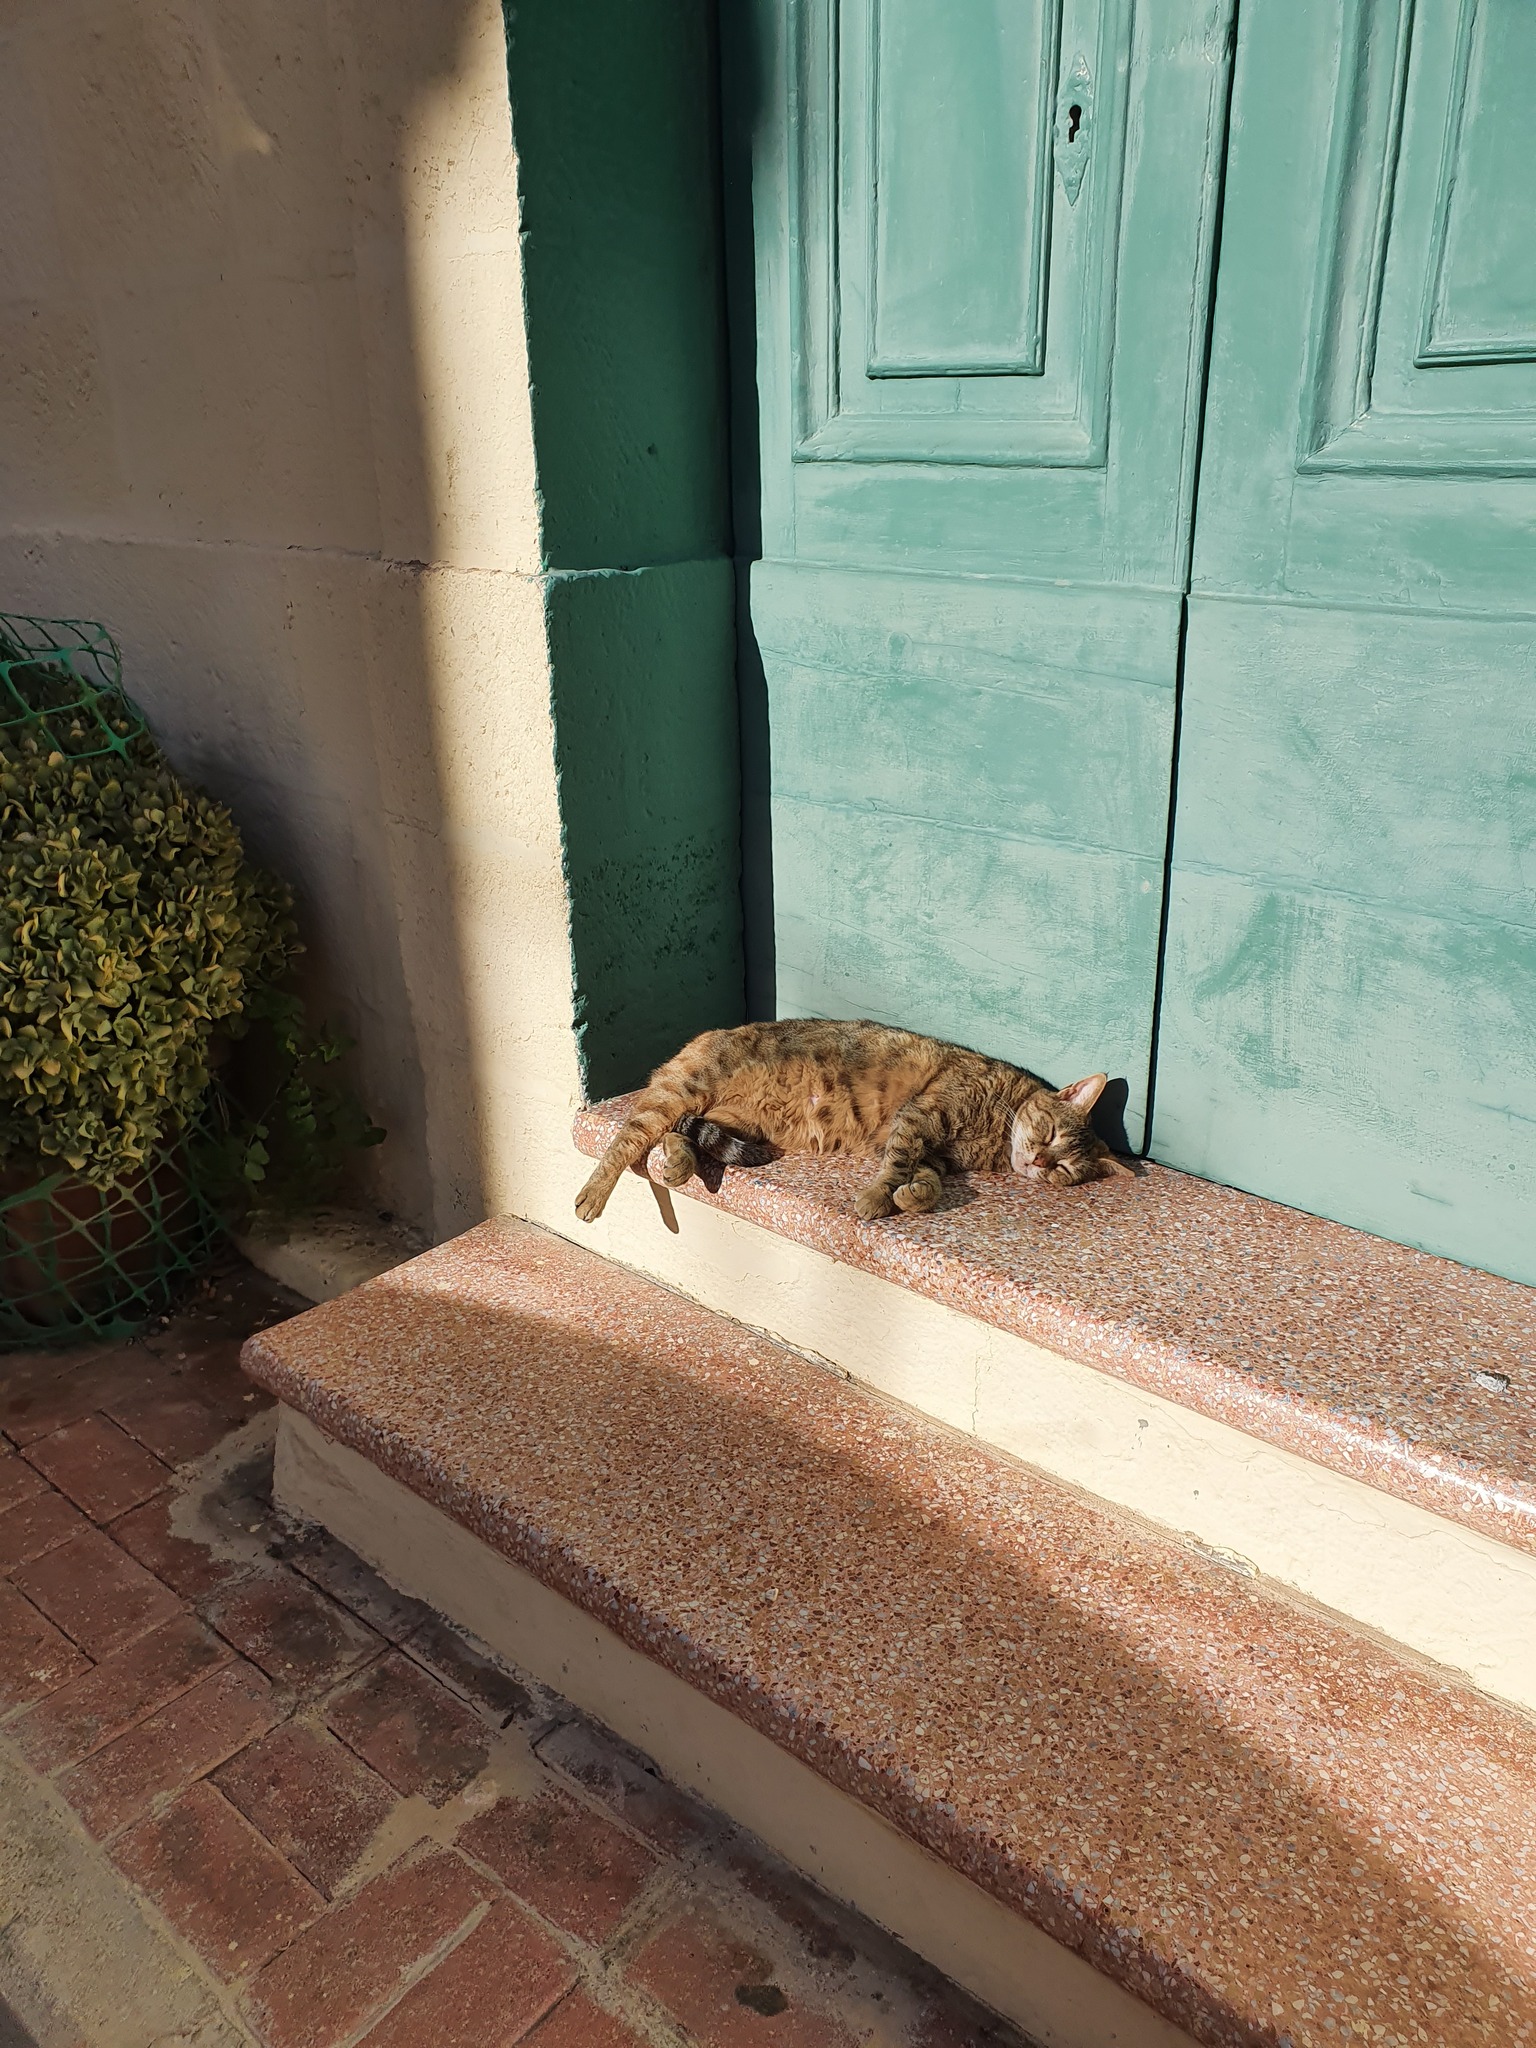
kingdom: Animalia
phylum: Chordata
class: Mammalia
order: Carnivora
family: Felidae
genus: Felis
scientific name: Felis catus
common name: Domestic cat
